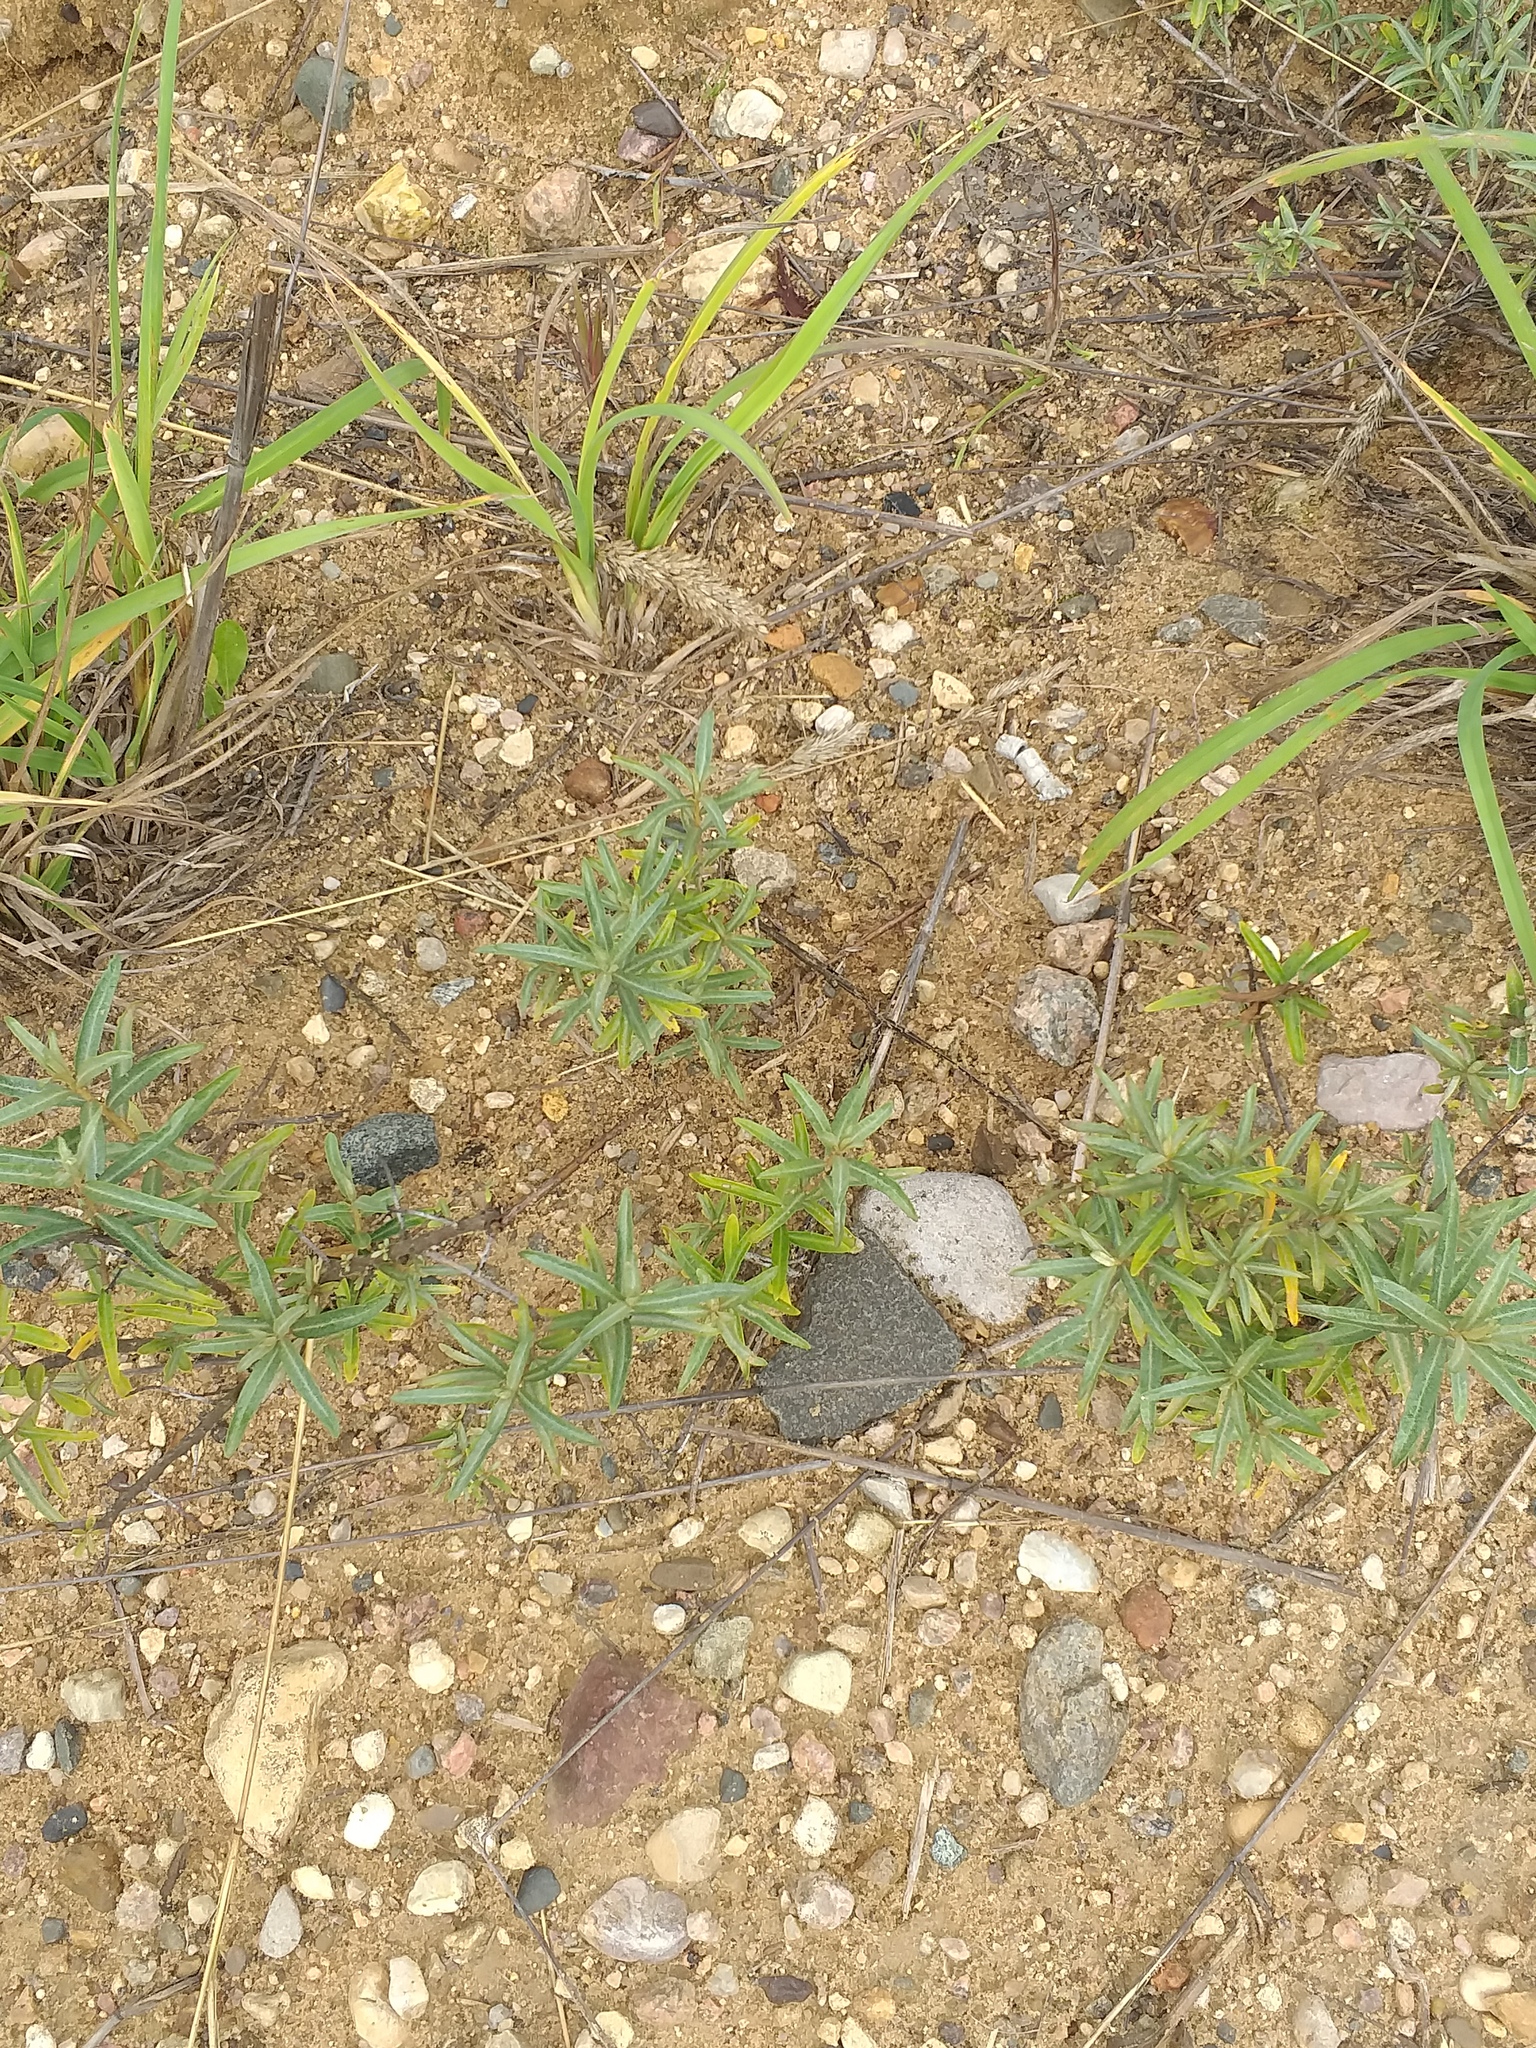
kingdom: Plantae
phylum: Tracheophyta
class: Magnoliopsida
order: Rosales
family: Elaeagnaceae
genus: Hippophae
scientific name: Hippophae rhamnoides
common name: Sea-buckthorn
